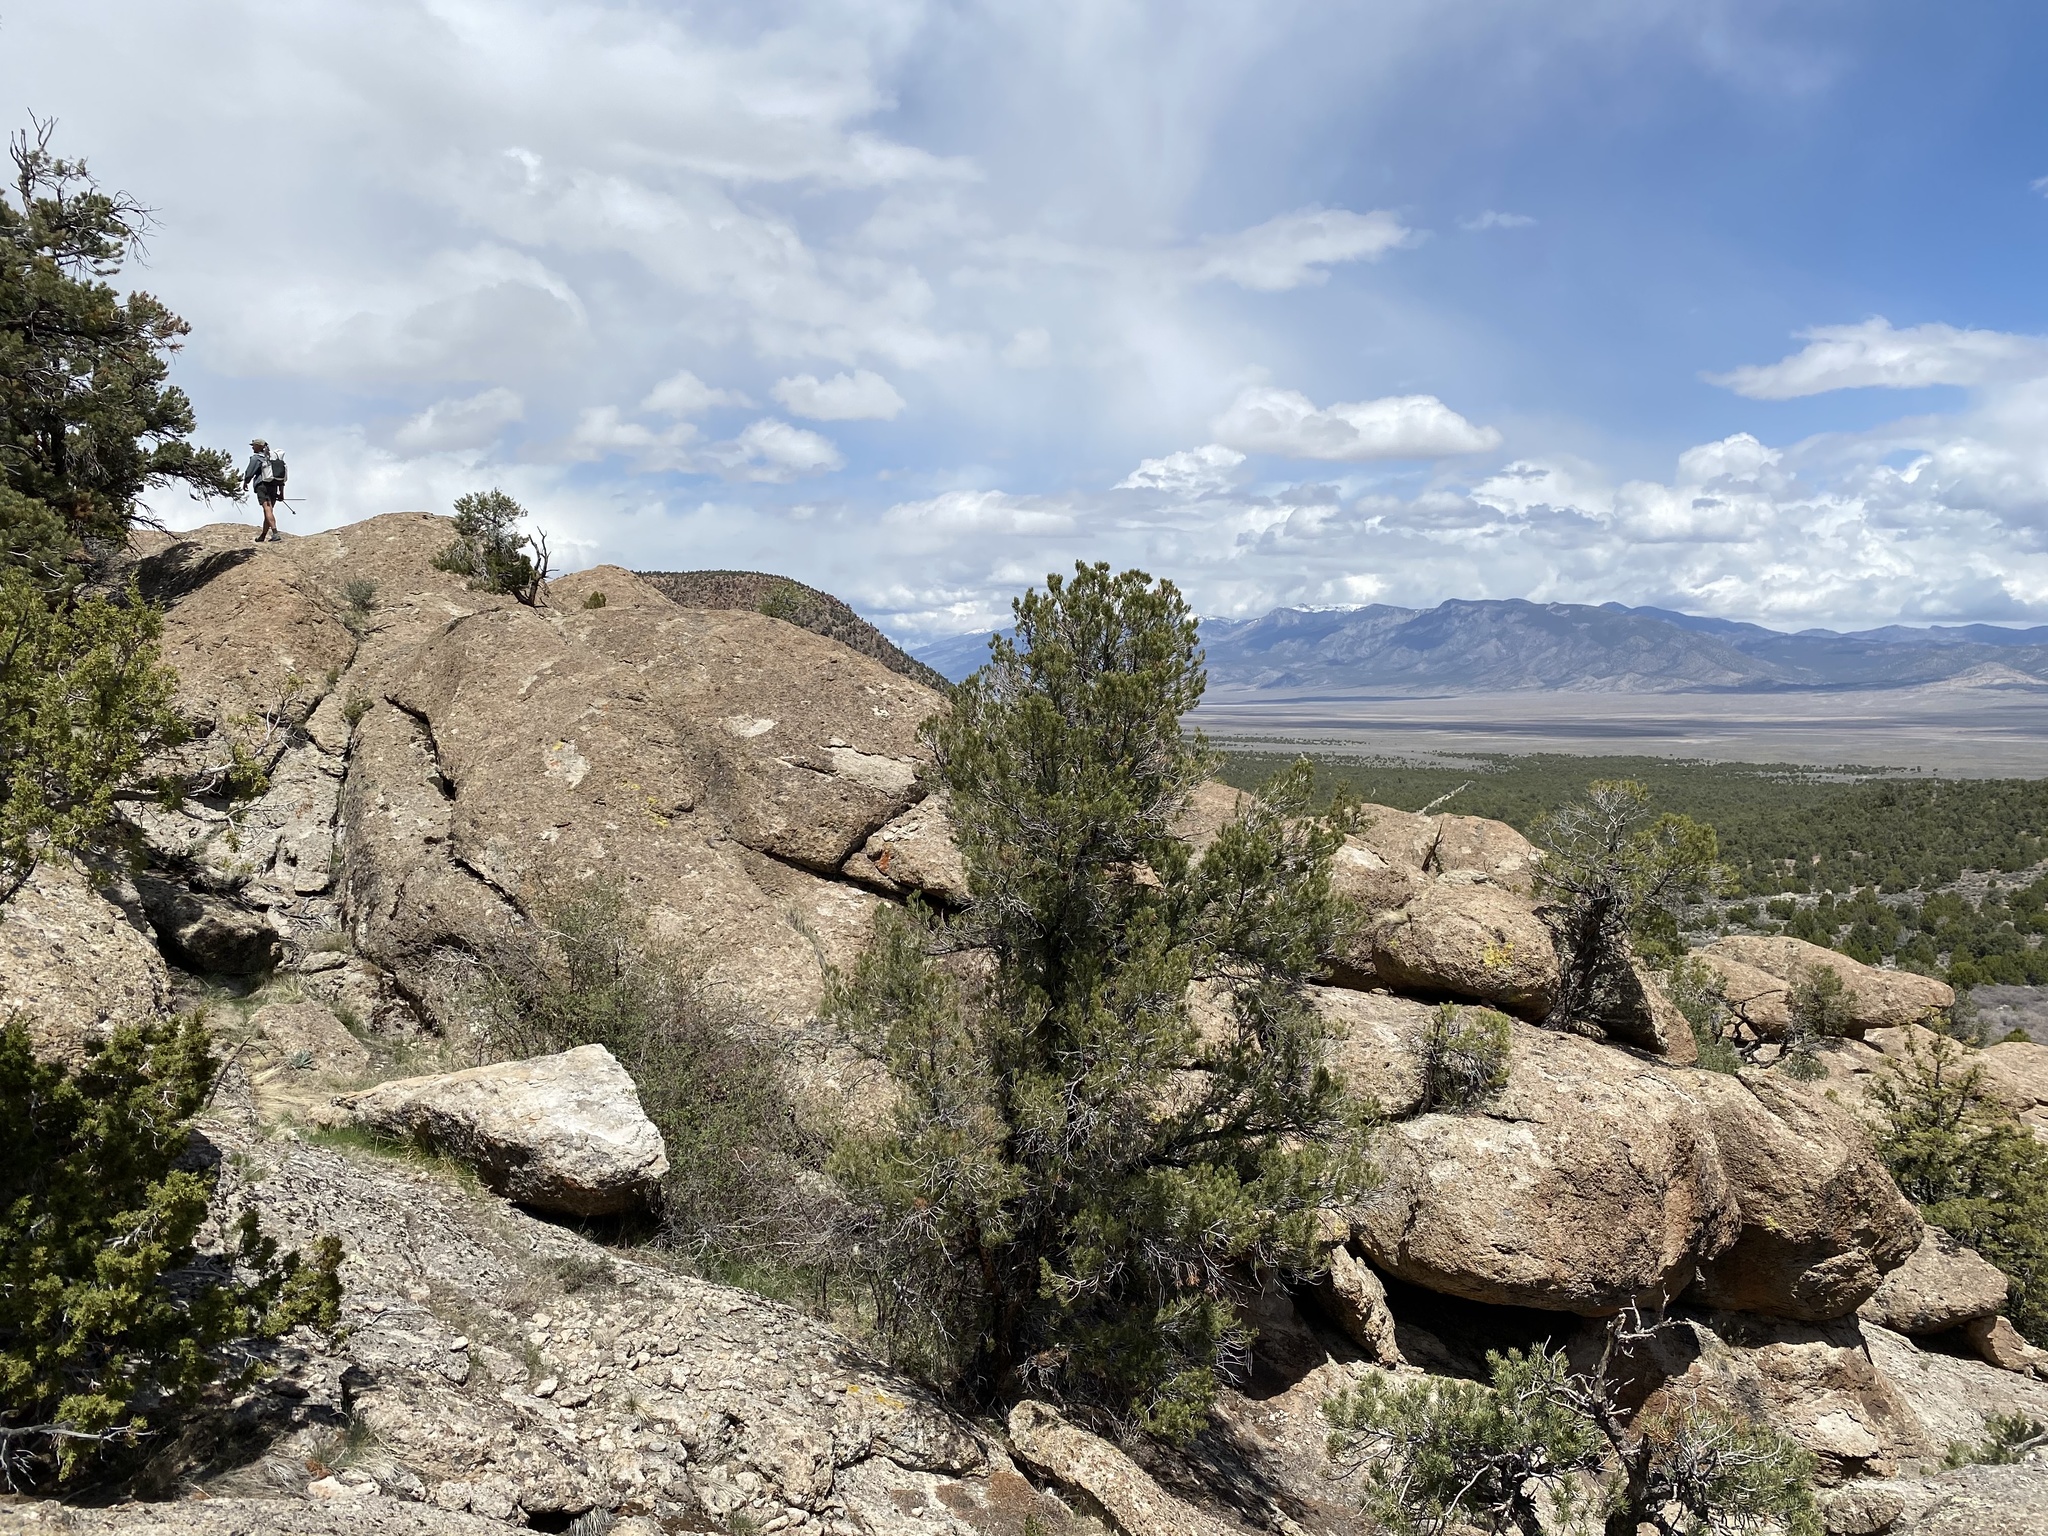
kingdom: Plantae
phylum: Tracheophyta
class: Pinopsida
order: Pinales
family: Pinaceae
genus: Pinus
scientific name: Pinus monophylla
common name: One-leaved nut pine
